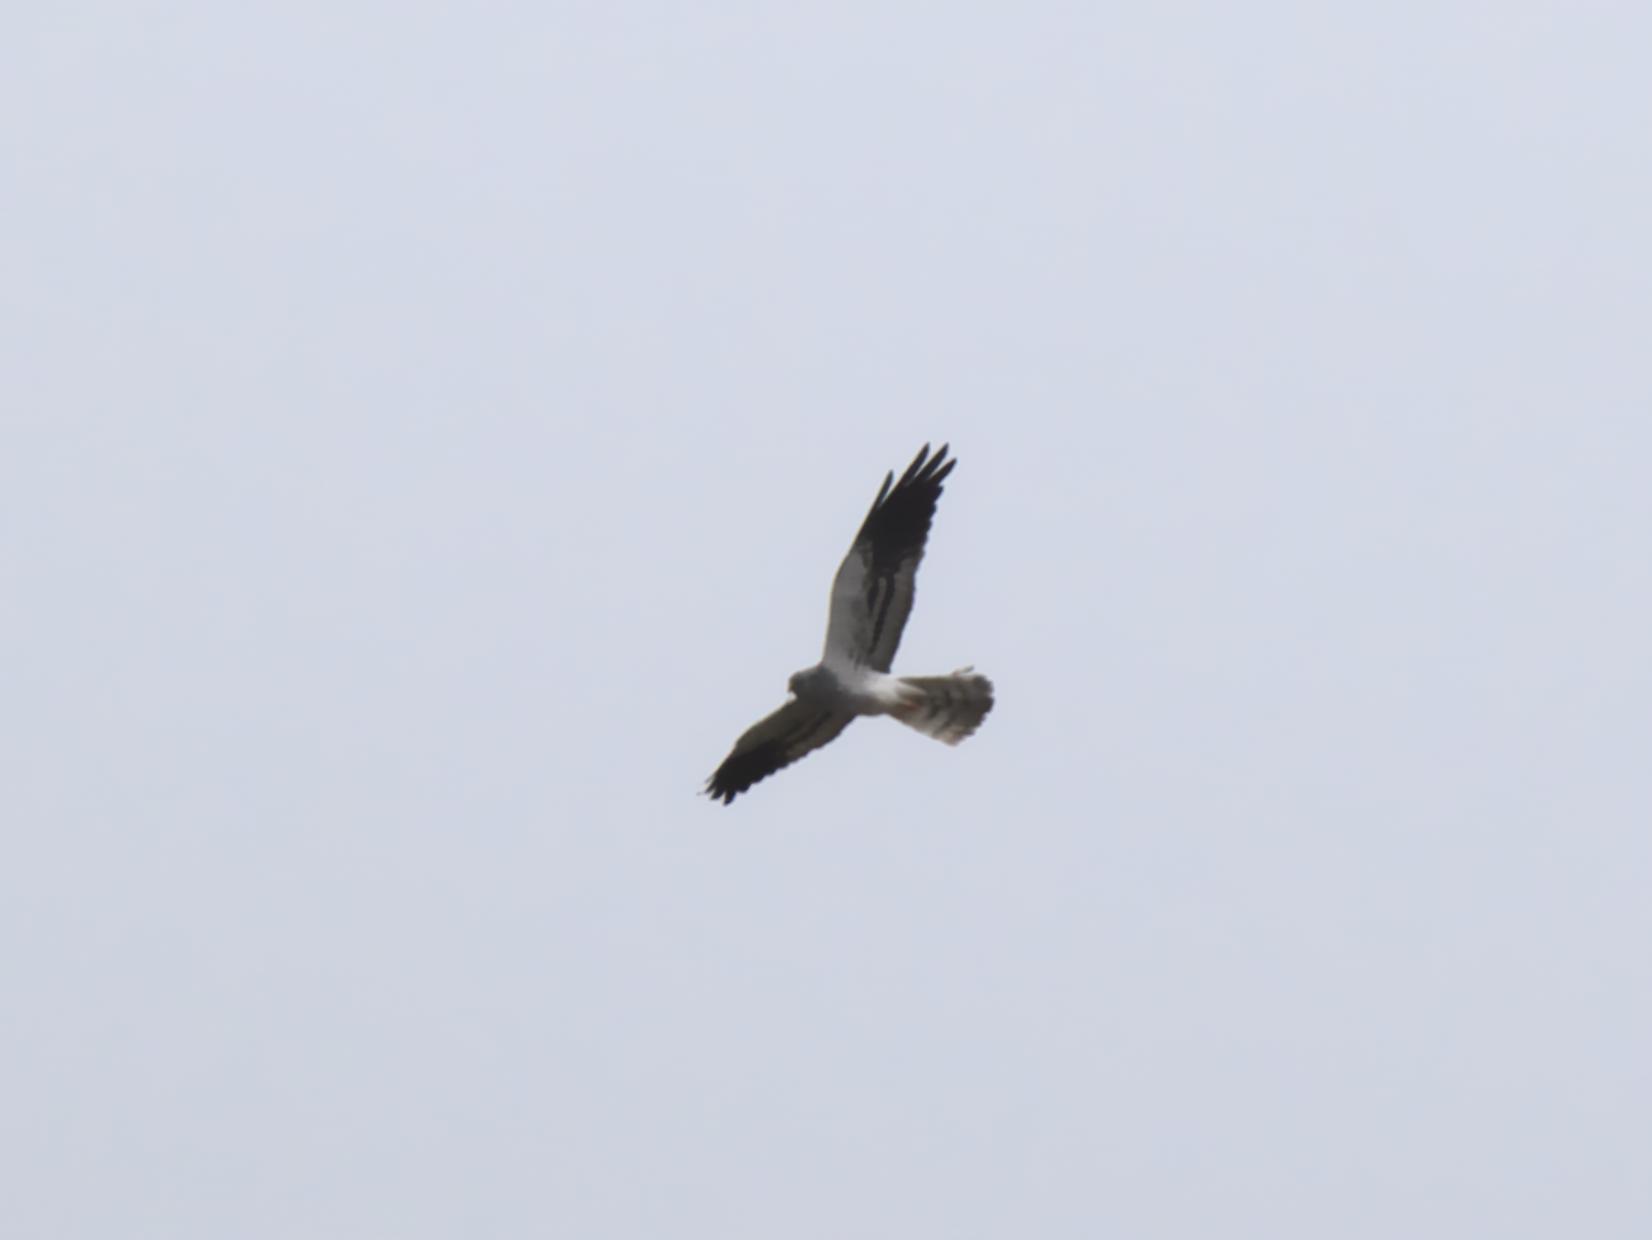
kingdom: Animalia
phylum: Chordata
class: Aves
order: Accipitriformes
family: Accipitridae
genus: Circus
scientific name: Circus pygargus
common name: Montagu's harrier
